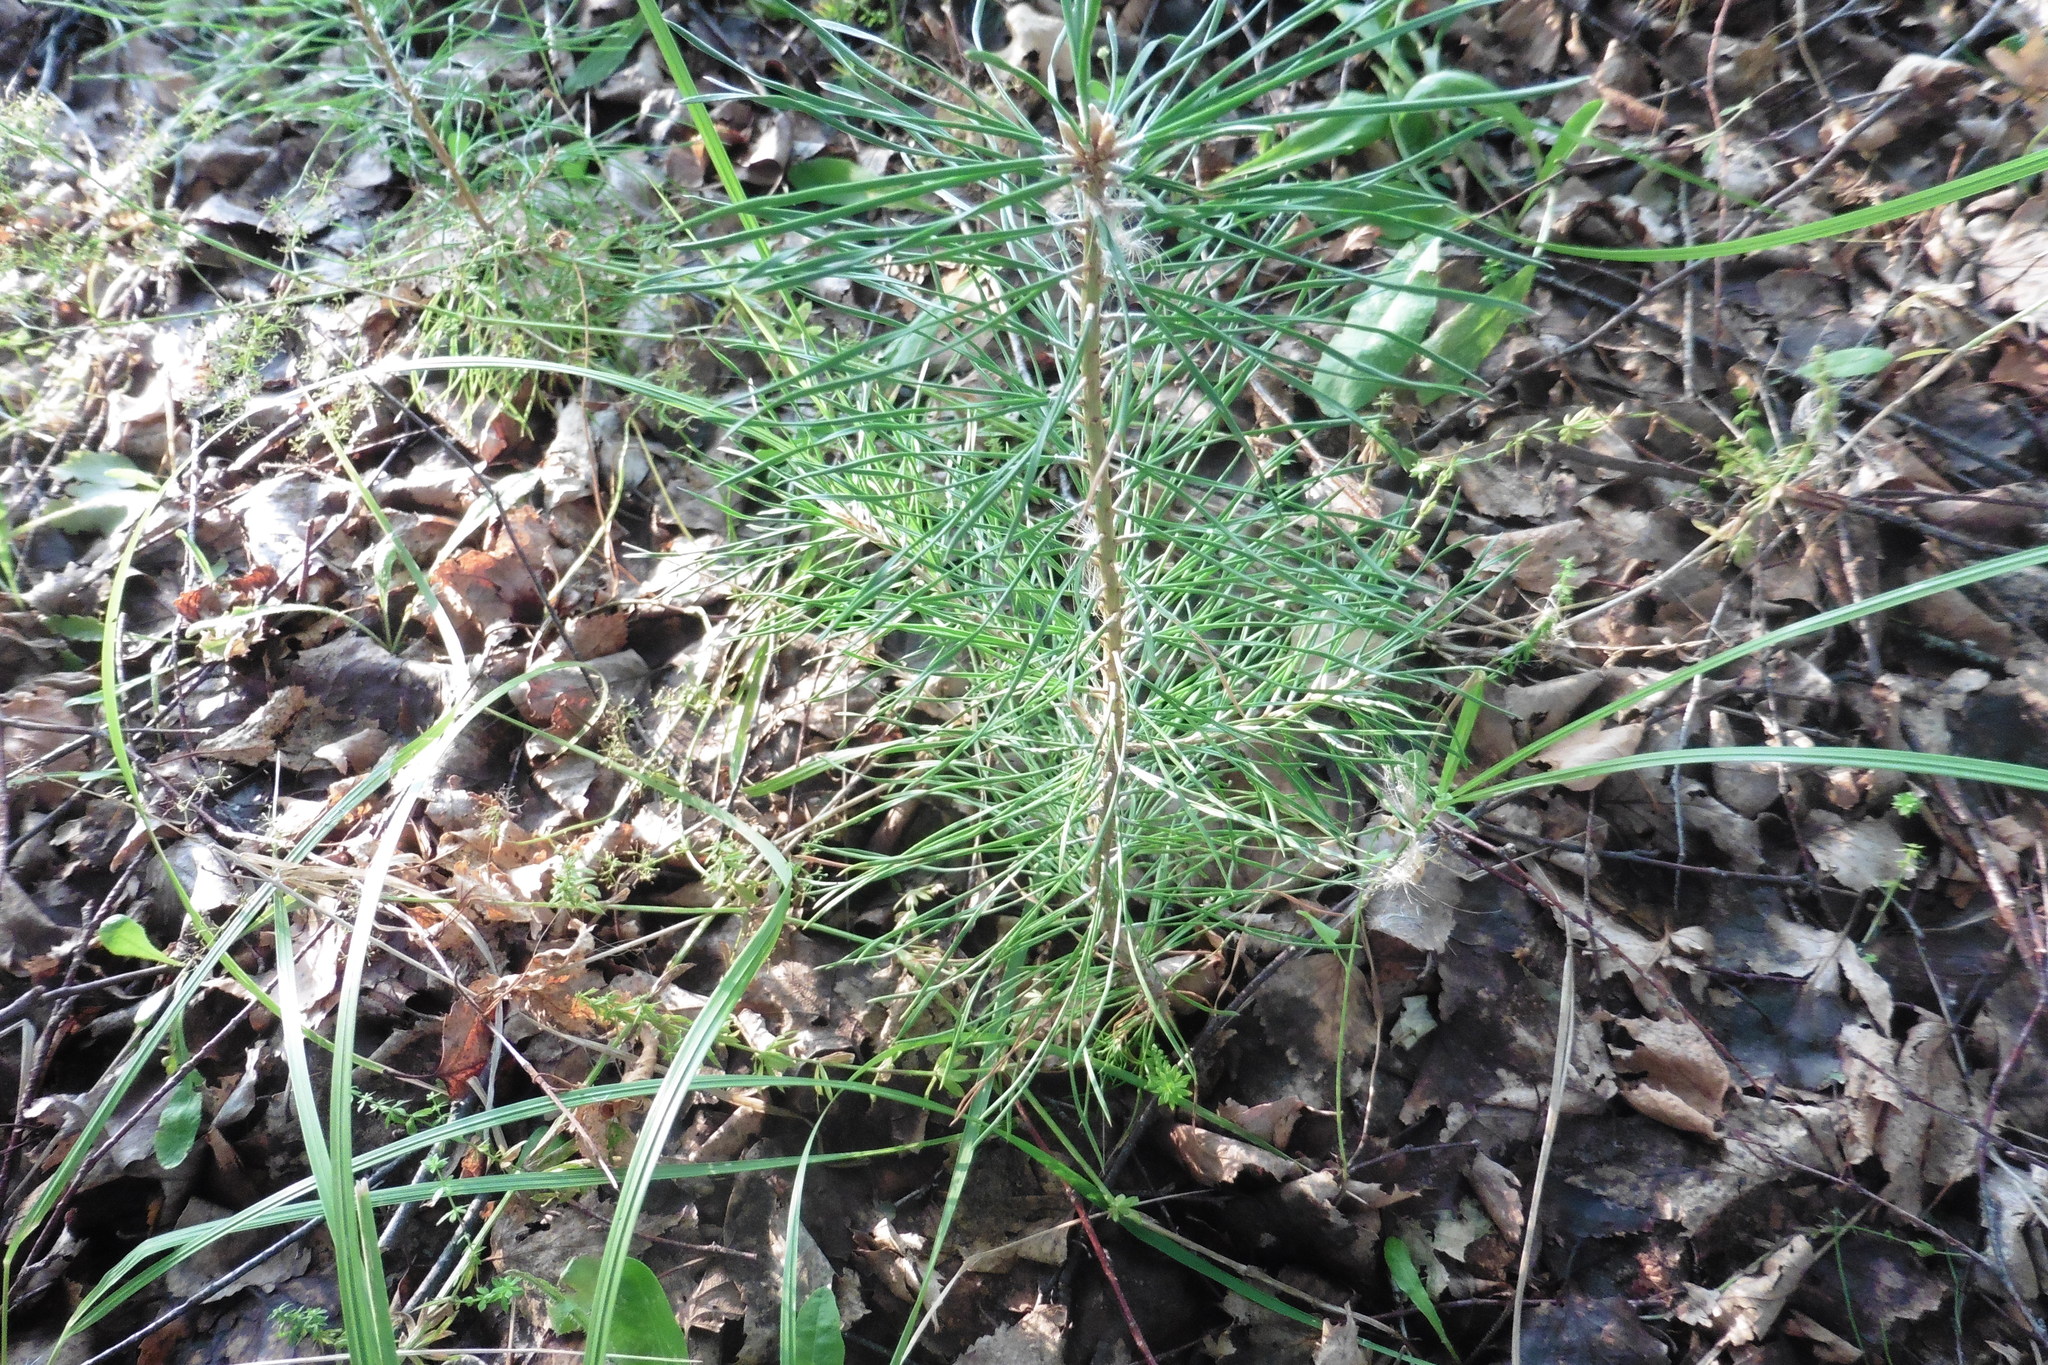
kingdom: Plantae
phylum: Tracheophyta
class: Pinopsida
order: Pinales
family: Pinaceae
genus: Pinus
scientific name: Pinus sylvestris
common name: Scots pine
